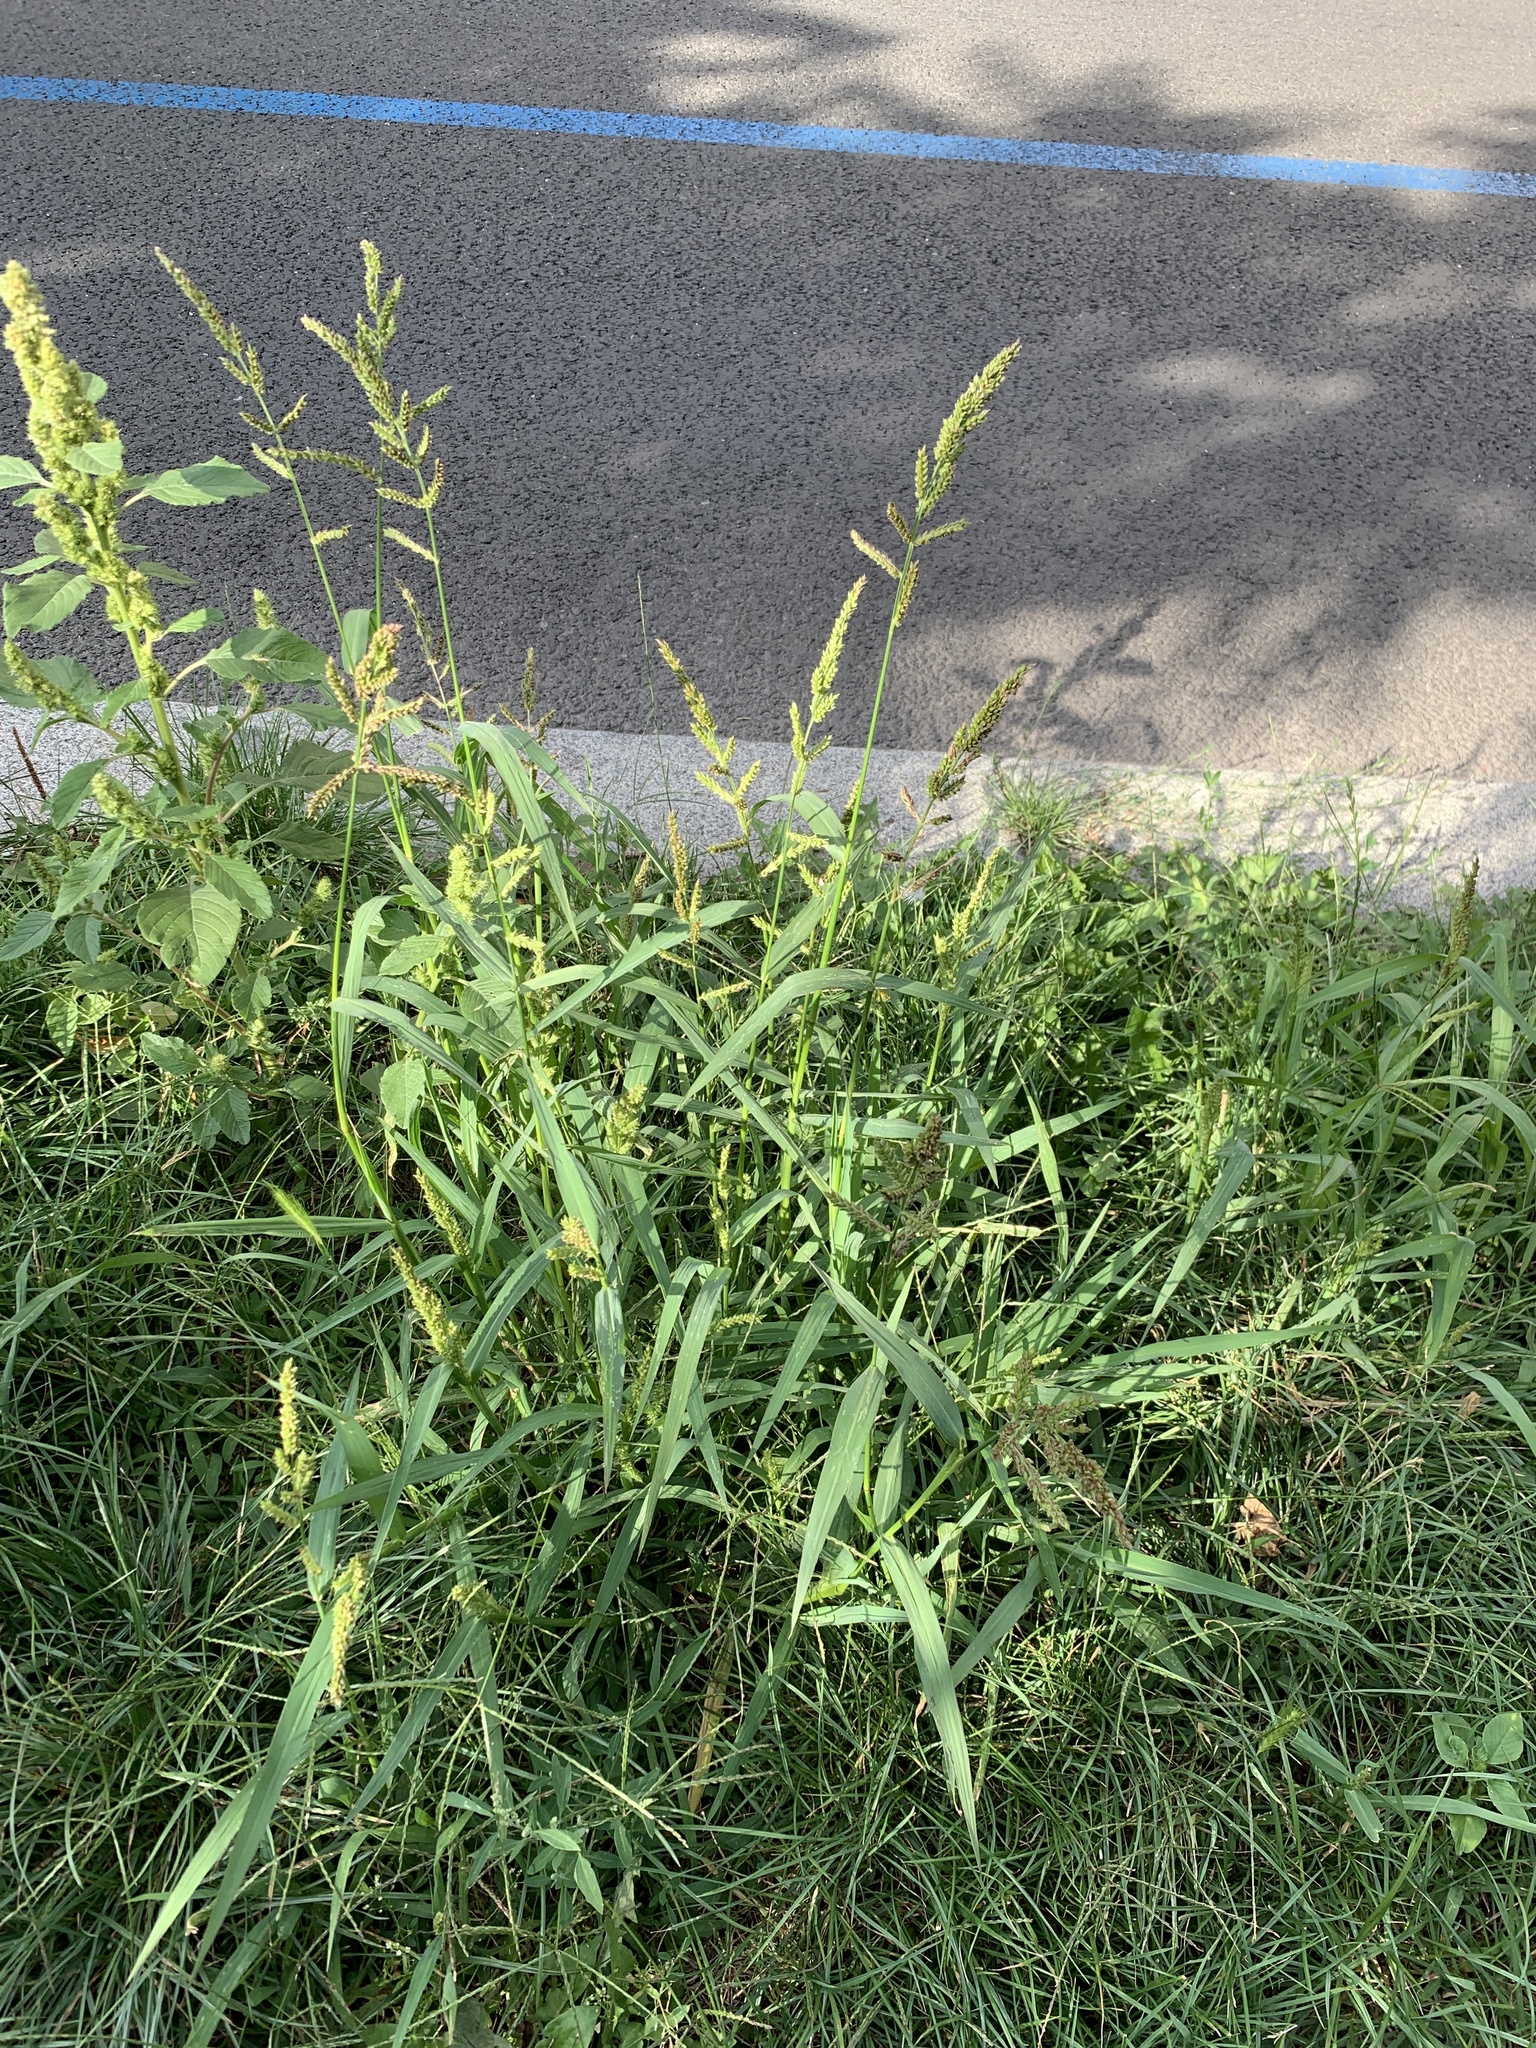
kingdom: Plantae
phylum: Tracheophyta
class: Liliopsida
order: Poales
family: Poaceae
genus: Echinochloa
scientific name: Echinochloa crus-galli
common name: Cockspur
